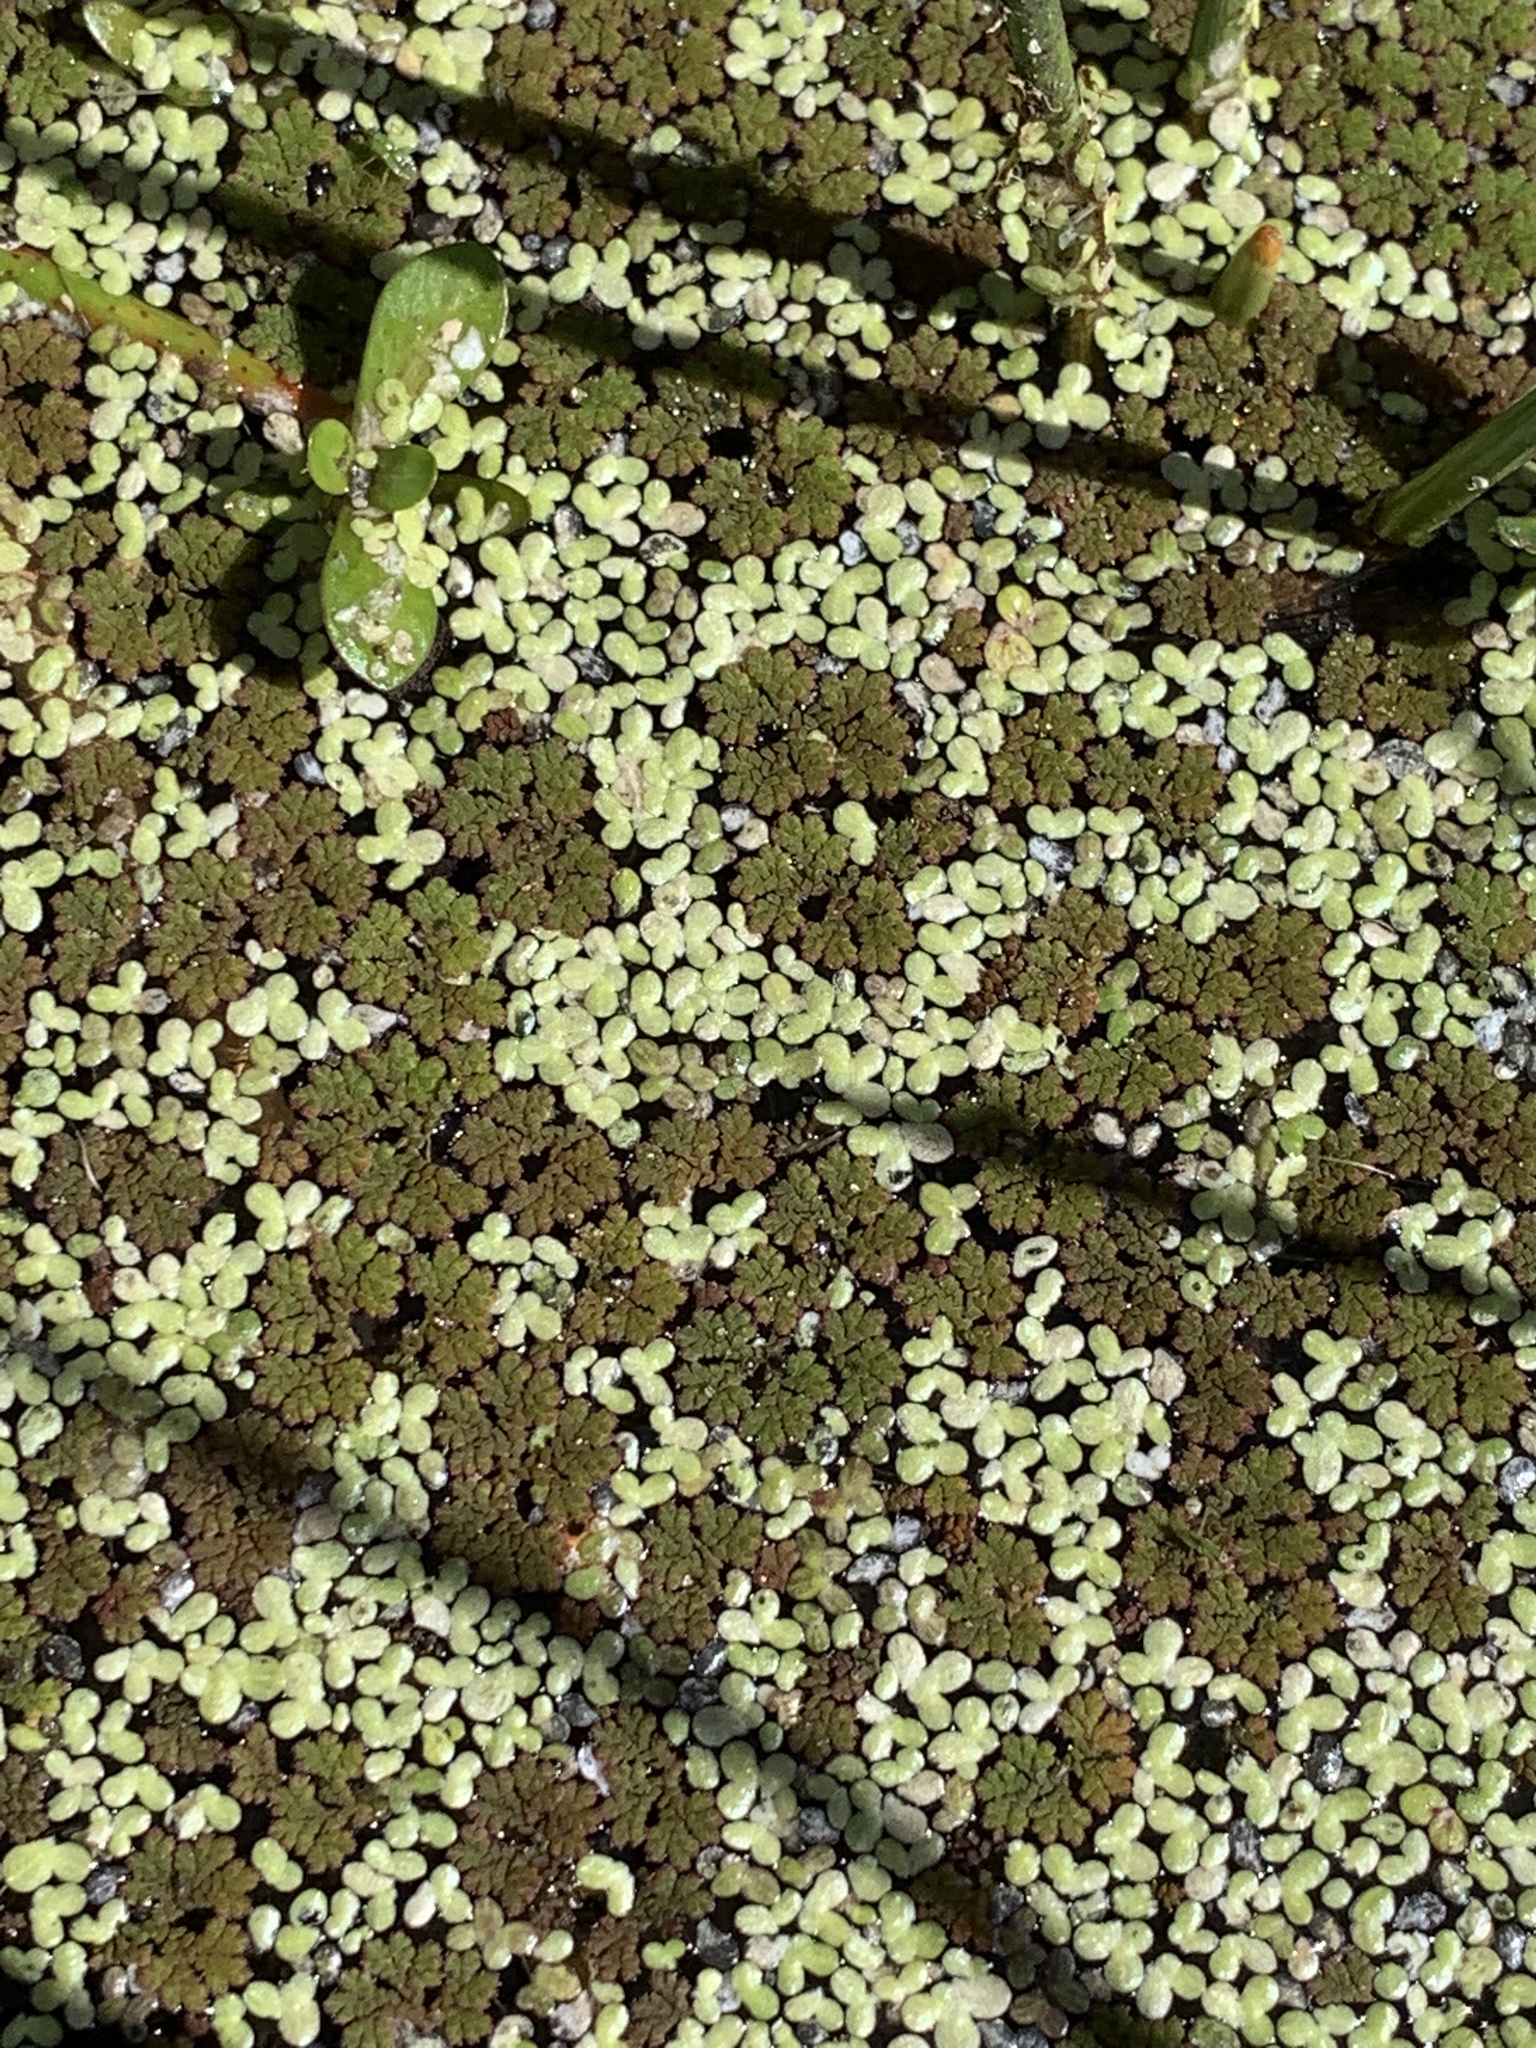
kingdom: Plantae
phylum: Tracheophyta
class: Polypodiopsida
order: Salviniales
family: Salviniaceae
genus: Azolla
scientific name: Azolla caroliniana
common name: Carolina mosquitofern
